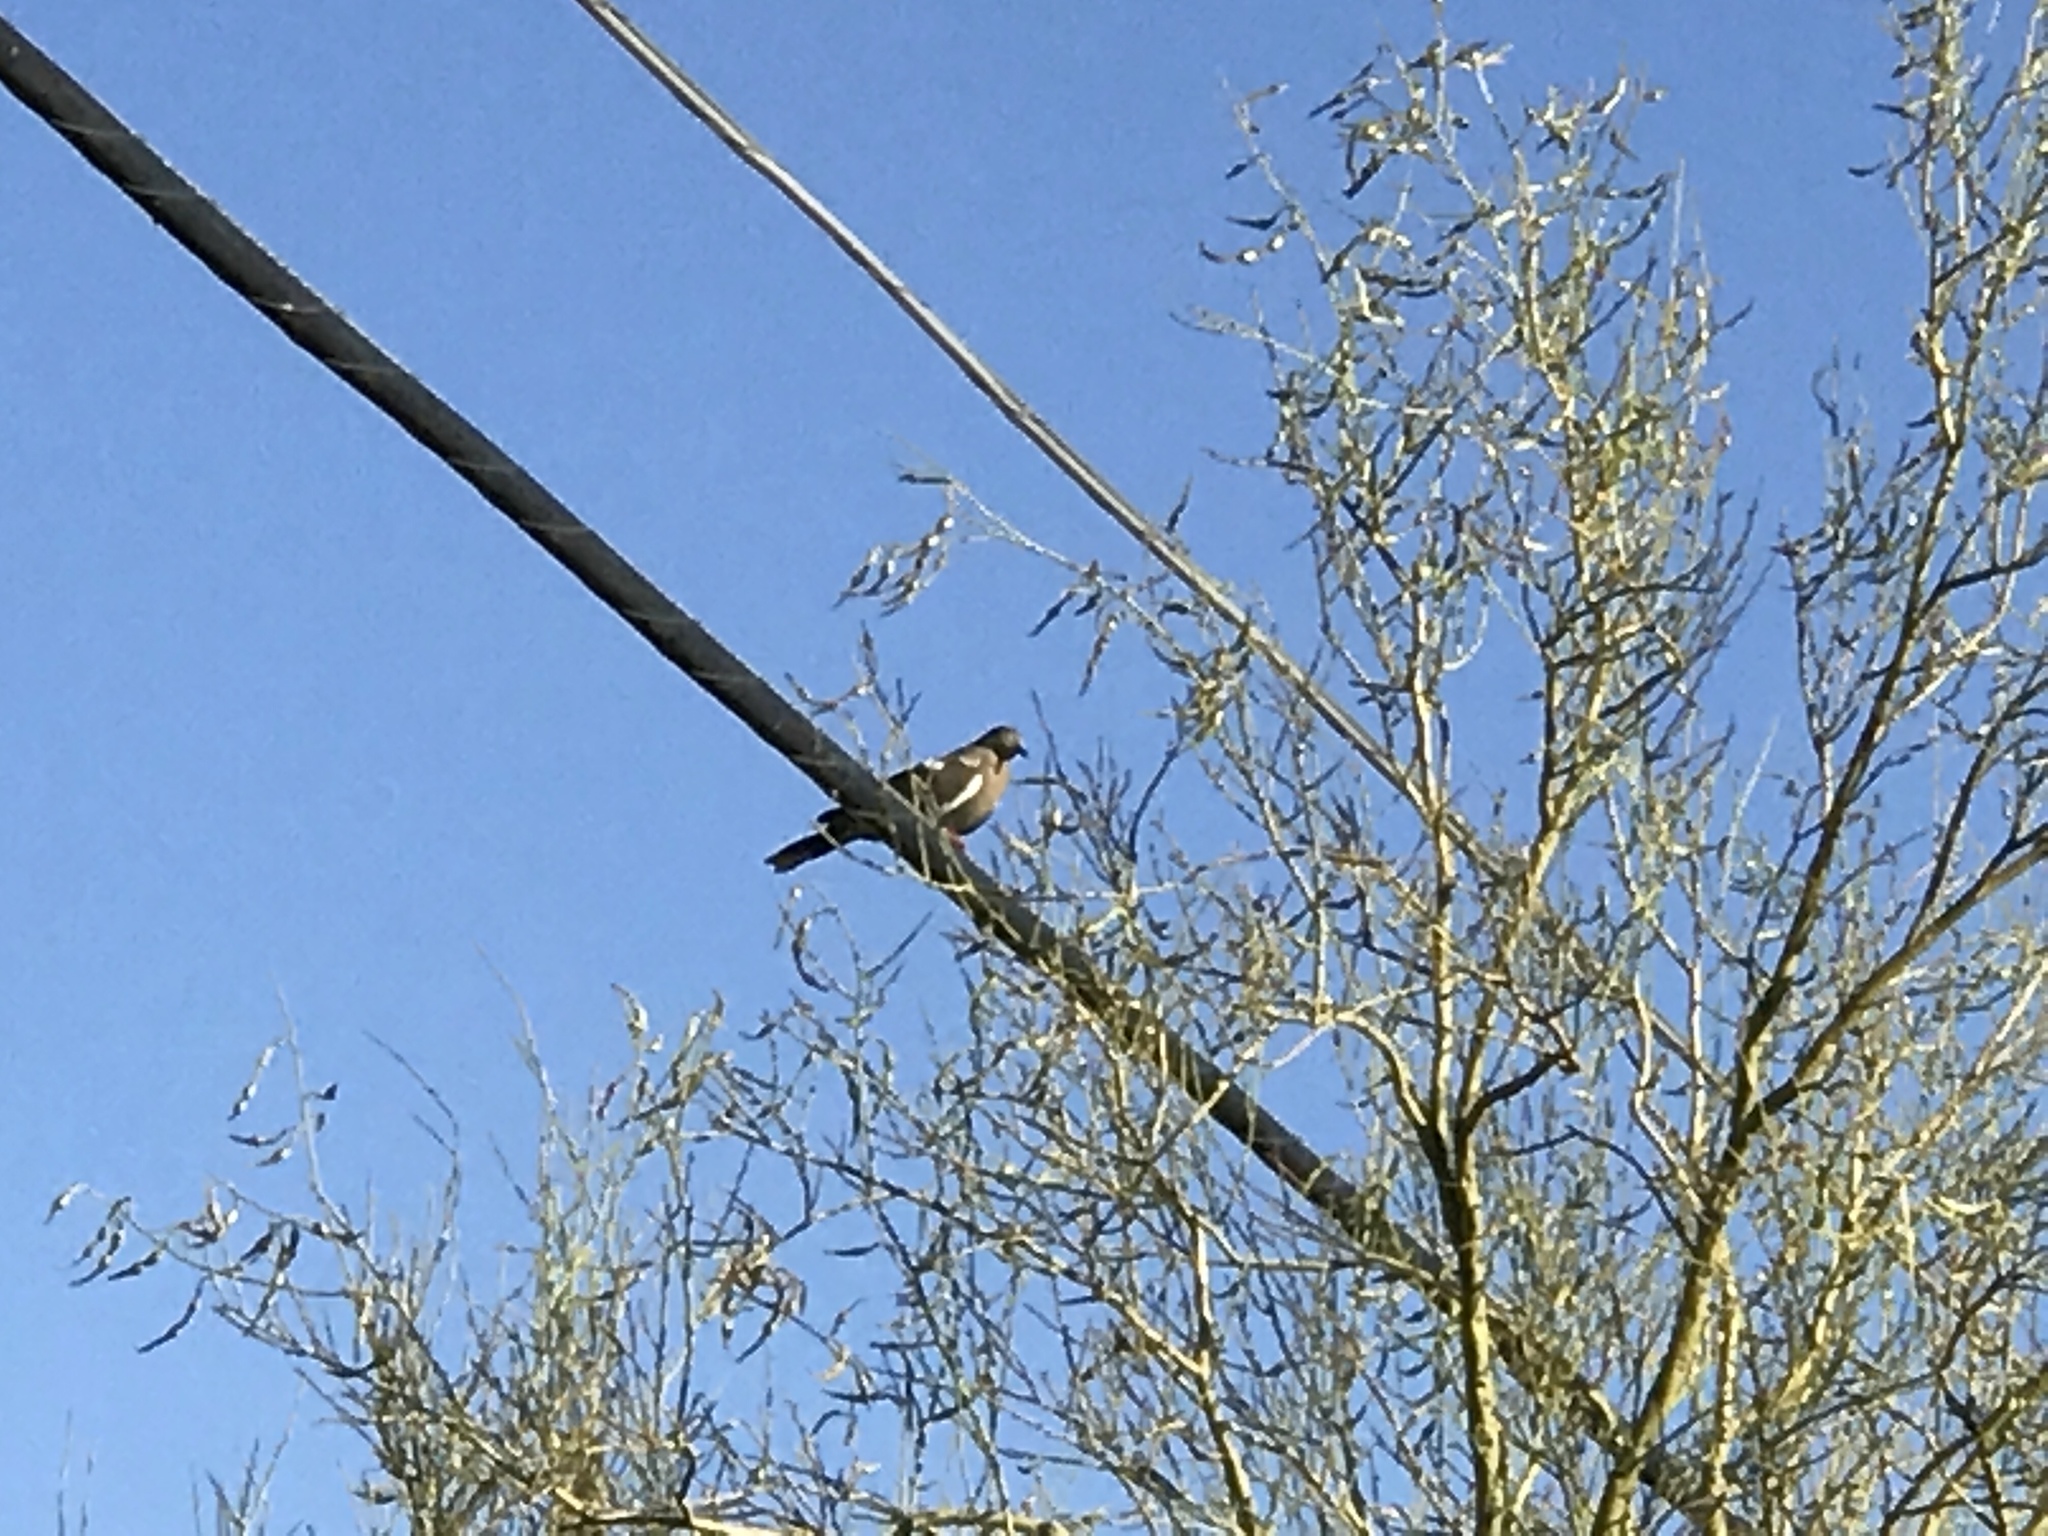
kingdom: Animalia
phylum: Chordata
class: Aves
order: Columbiformes
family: Columbidae
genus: Zenaida
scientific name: Zenaida asiatica
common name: White-winged dove
